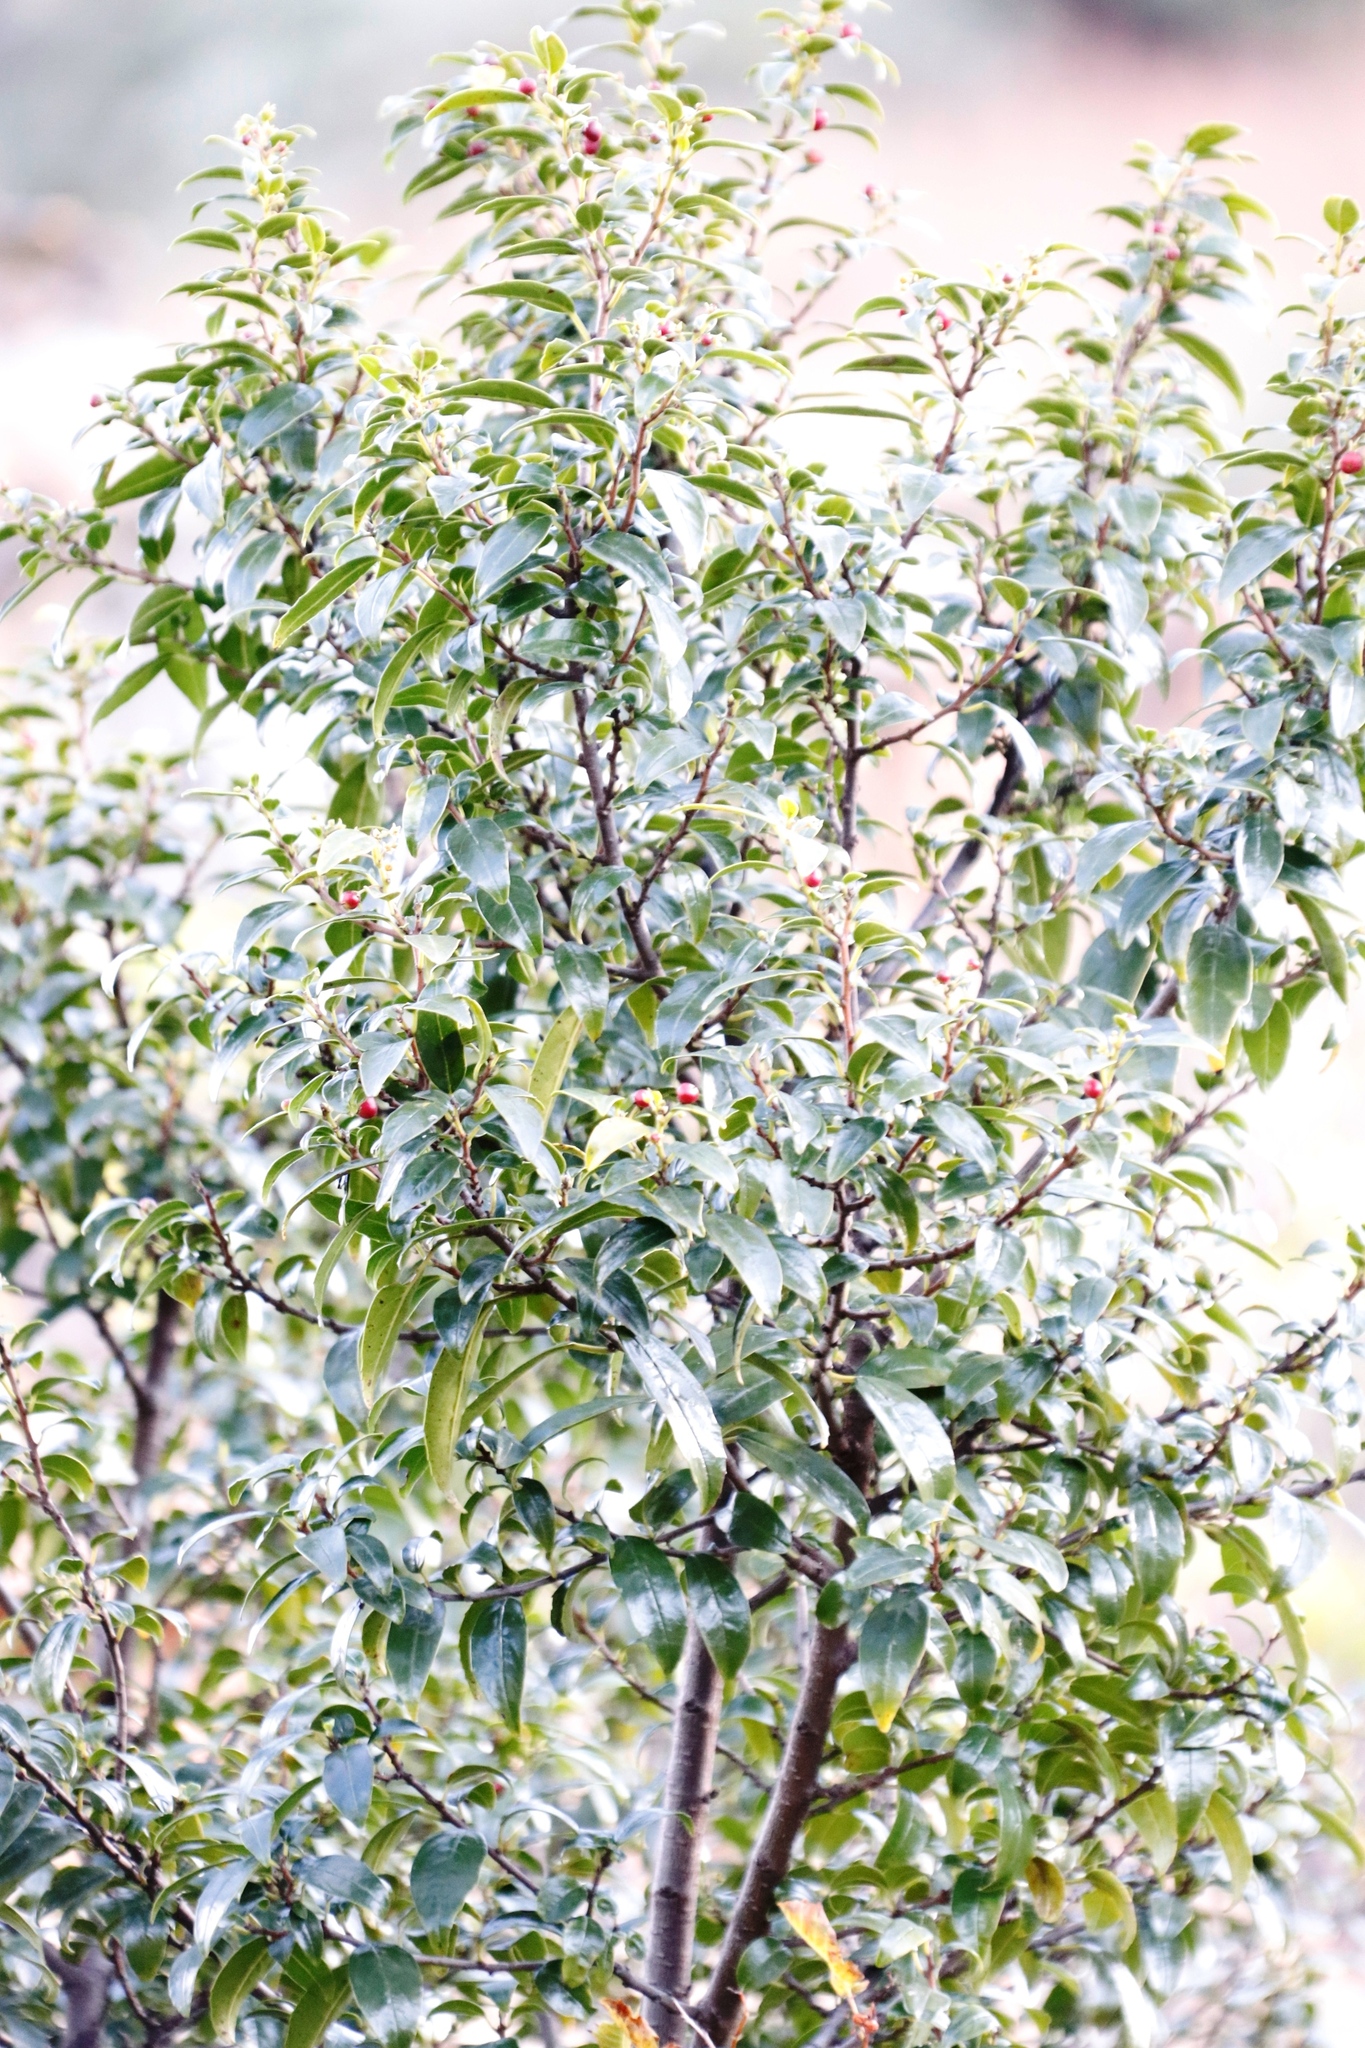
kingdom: Plantae
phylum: Tracheophyta
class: Magnoliopsida
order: Rosales
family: Rhamnaceae
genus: Rhamnus
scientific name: Rhamnus prinoides
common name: Dogwood
